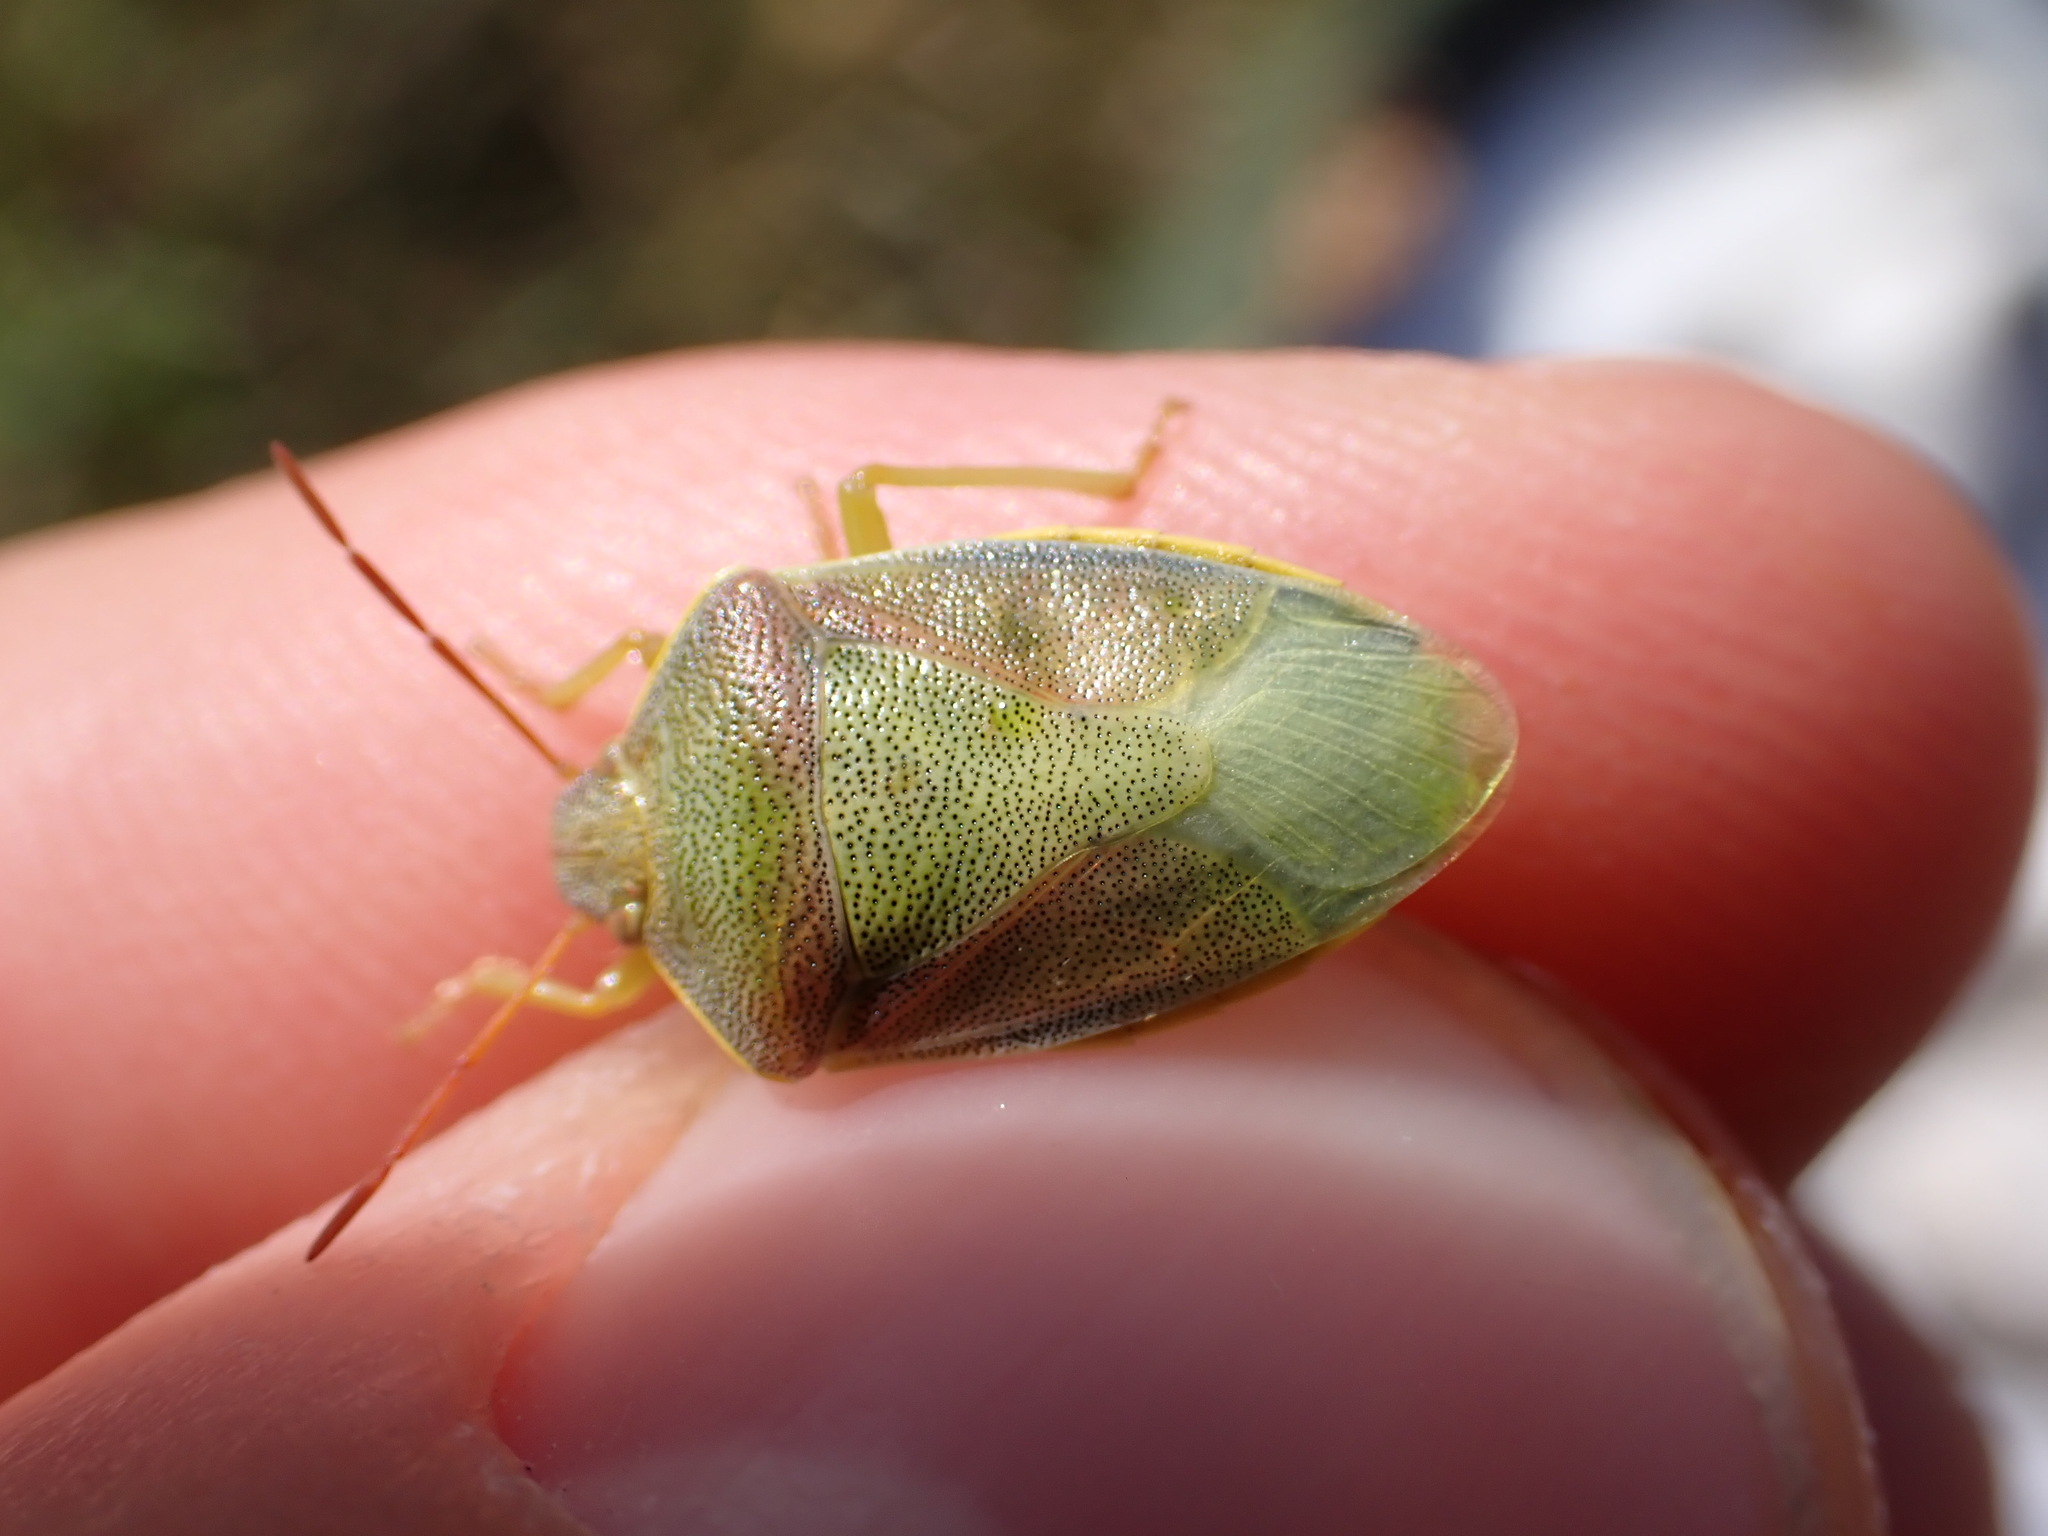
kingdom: Animalia
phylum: Arthropoda
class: Insecta
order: Hemiptera
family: Pentatomidae
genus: Piezodorus
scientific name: Piezodorus lituratus
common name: Stink bug
